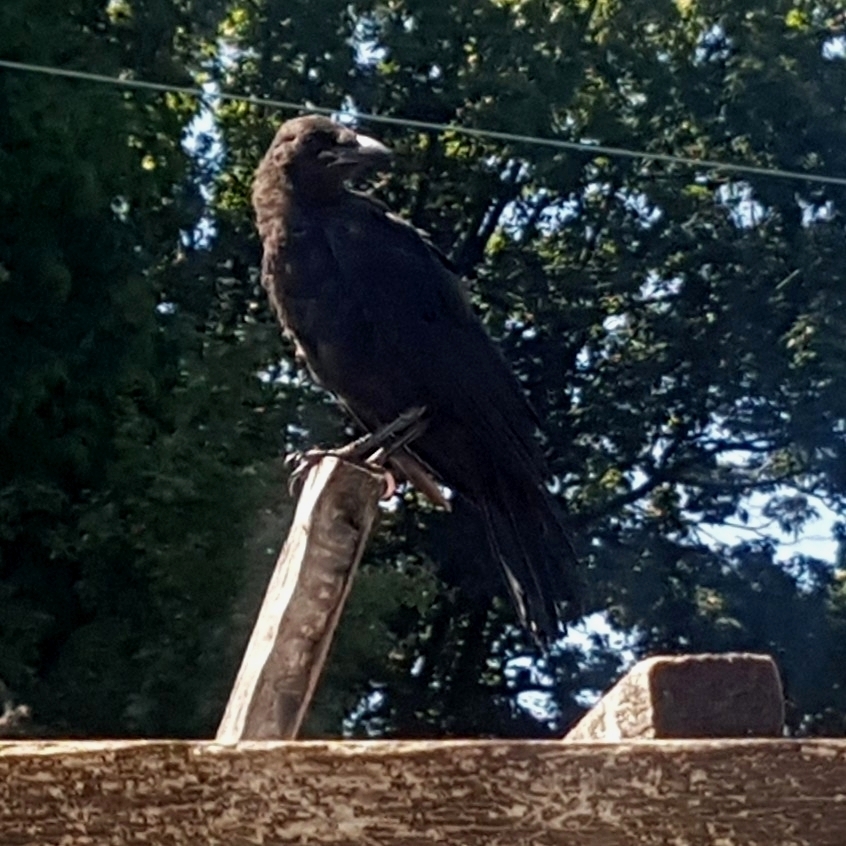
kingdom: Animalia
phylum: Chordata
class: Aves
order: Passeriformes
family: Corvidae
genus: Corvus
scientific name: Corvus brachyrhynchos
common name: American crow
